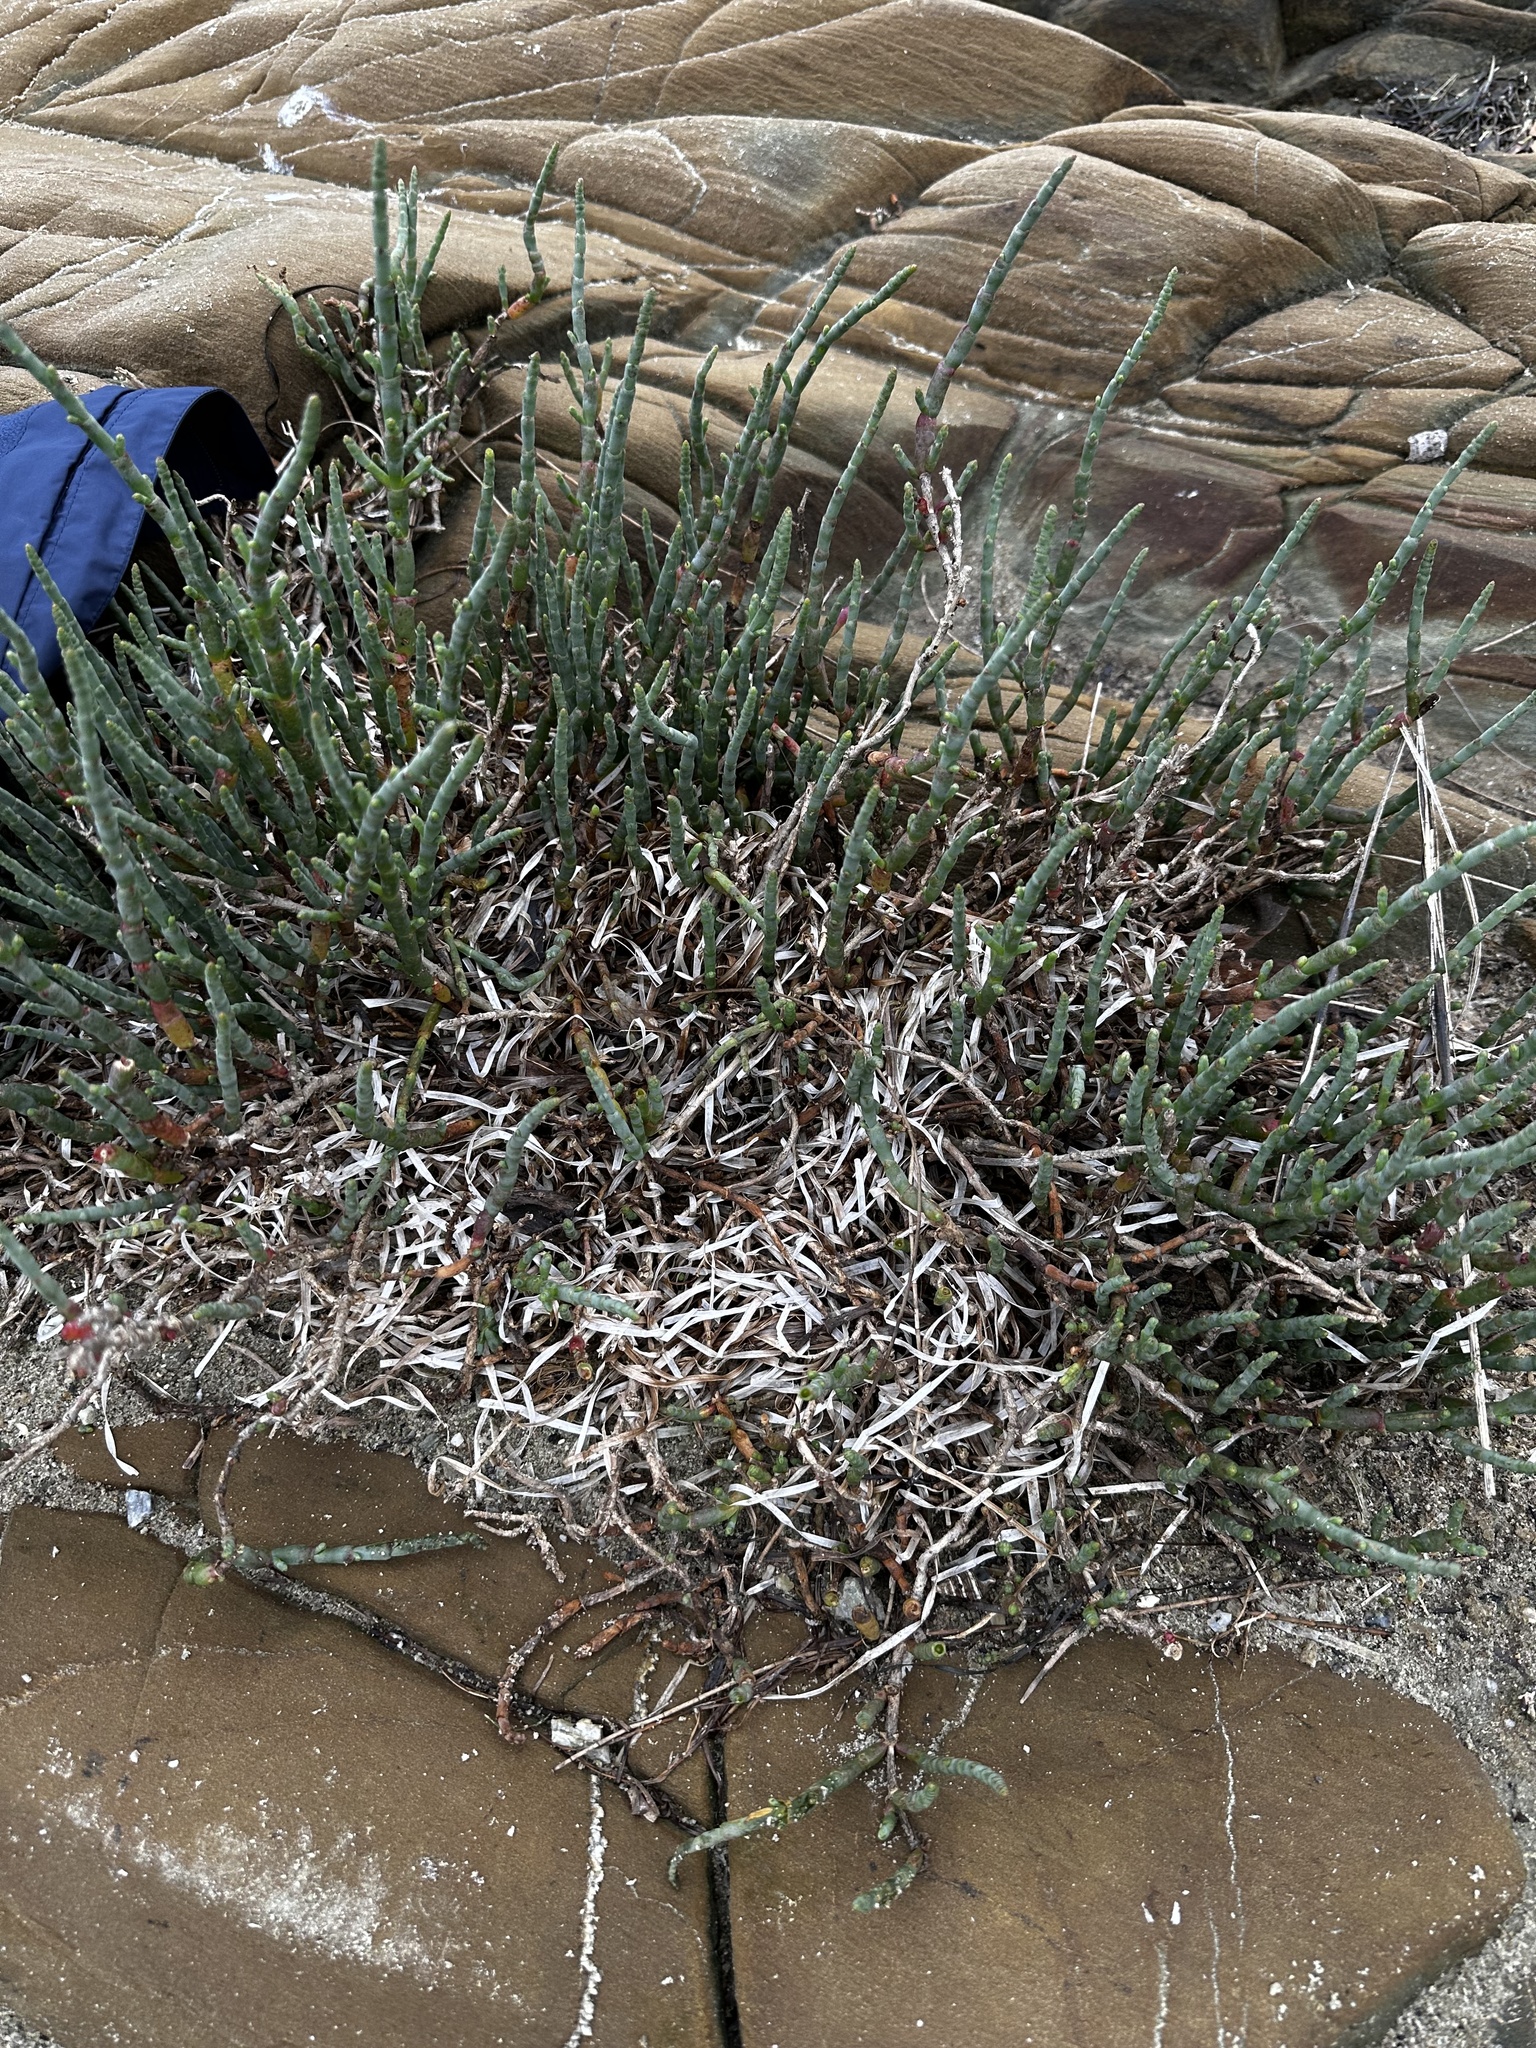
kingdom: Plantae
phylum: Tracheophyta
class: Magnoliopsida
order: Caryophyllales
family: Amaranthaceae
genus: Salicornia
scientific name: Salicornia quinqueflora
